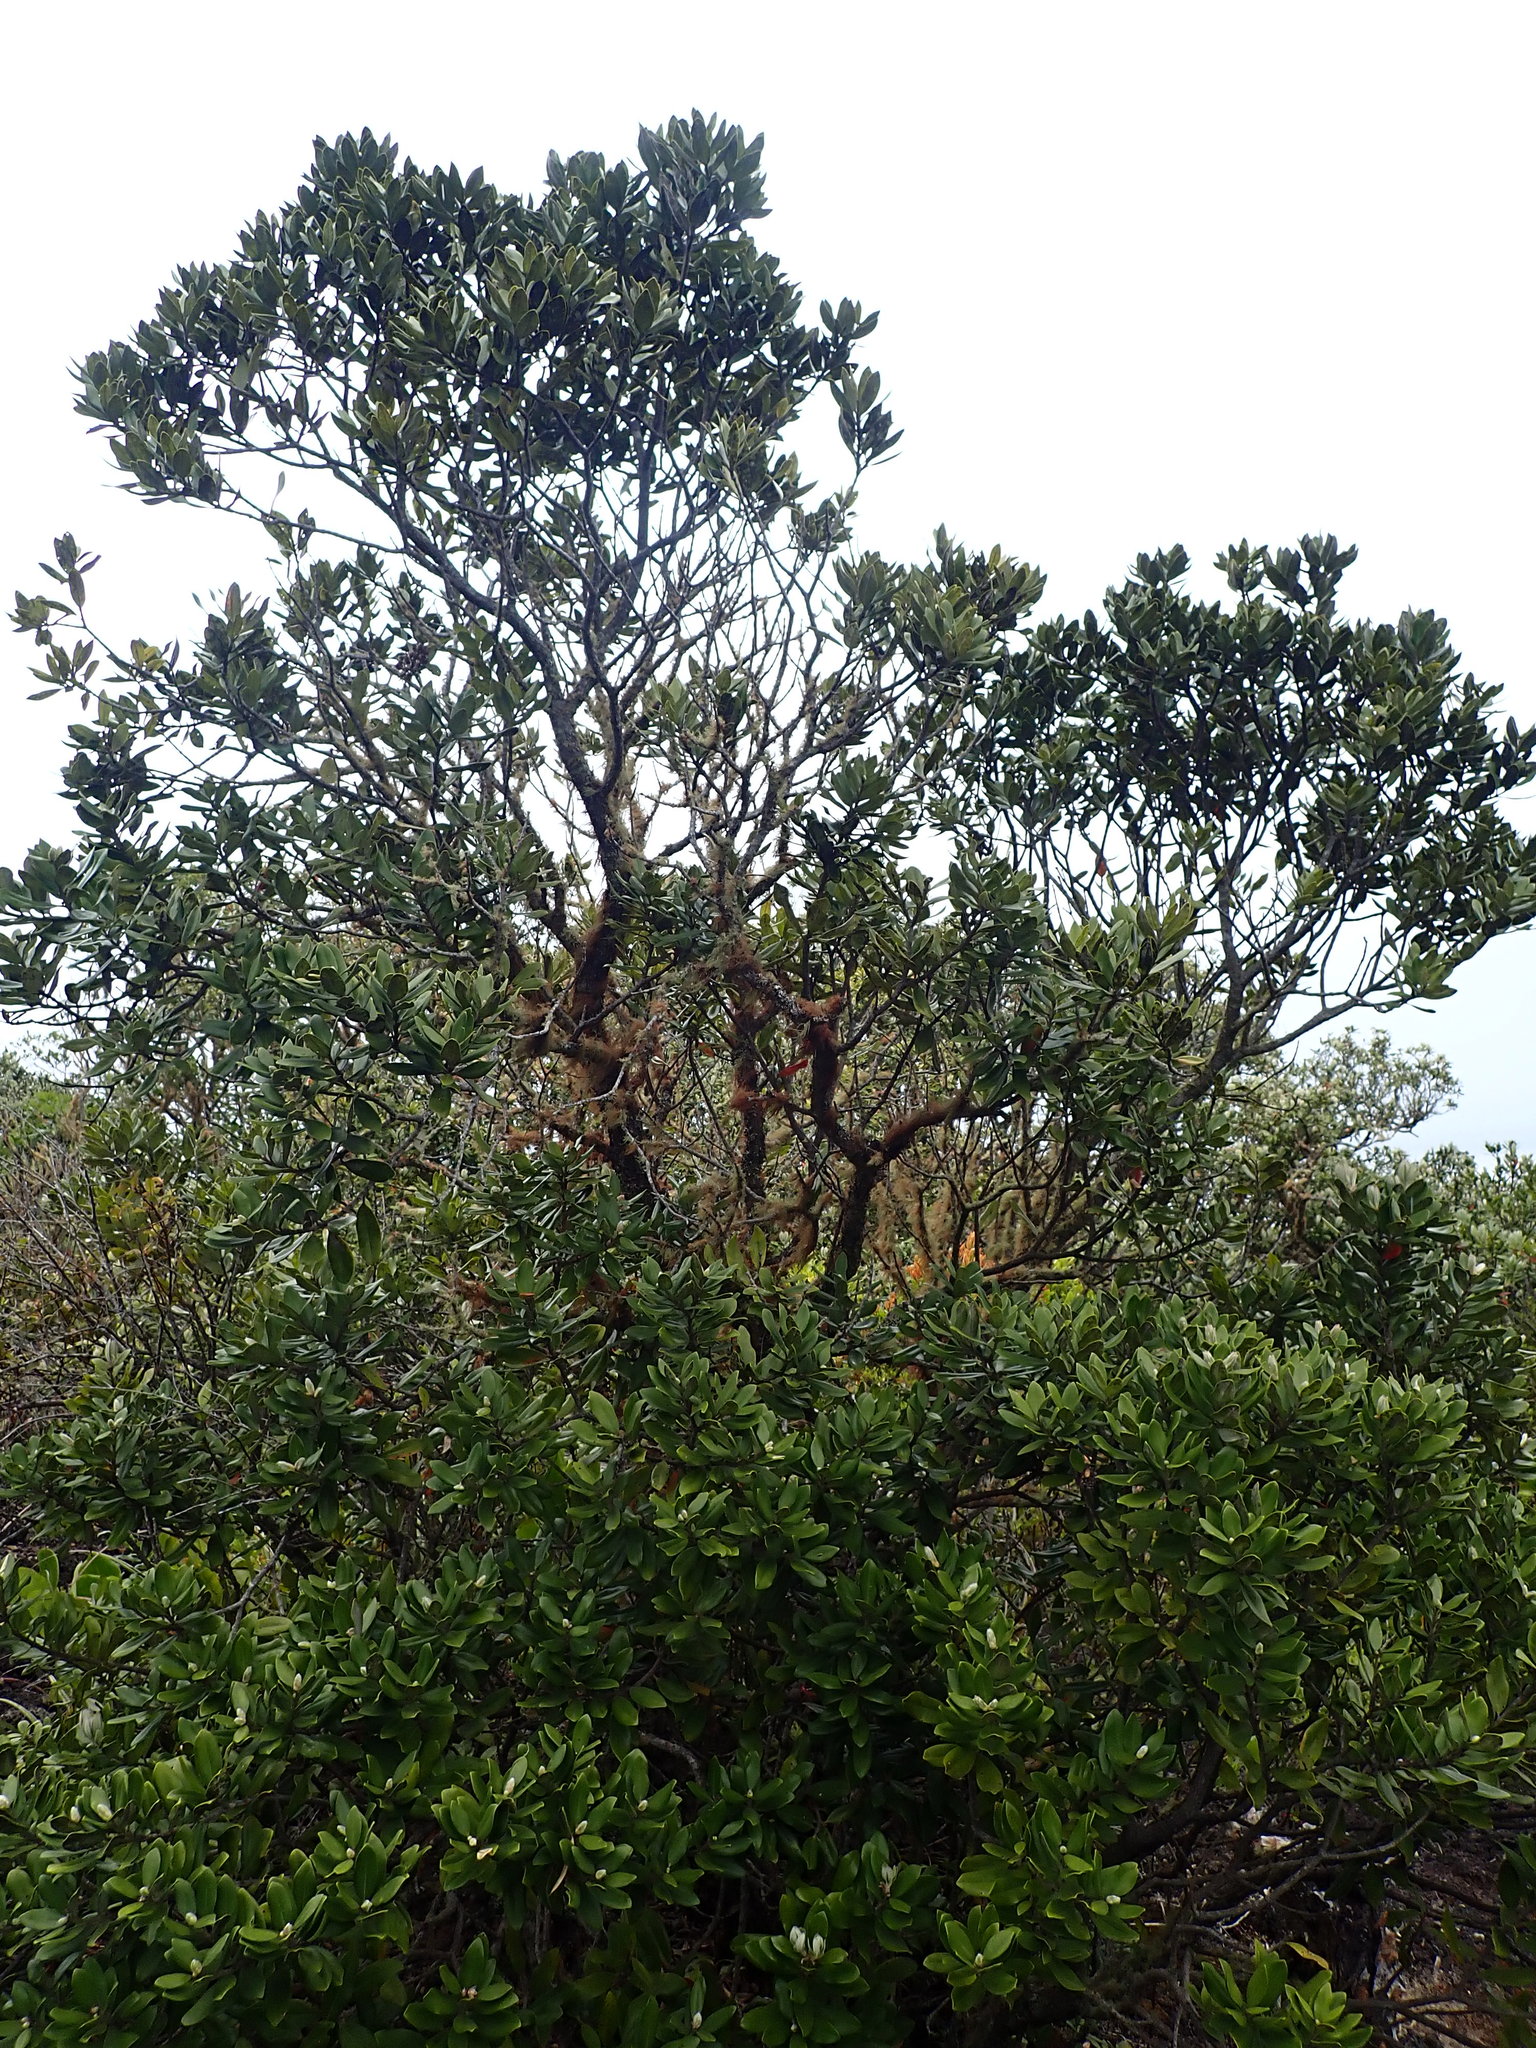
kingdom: Plantae
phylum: Tracheophyta
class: Magnoliopsida
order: Myrtales
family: Myrtaceae
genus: Metrosideros
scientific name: Metrosideros excelsa
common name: New zealand christmastree
